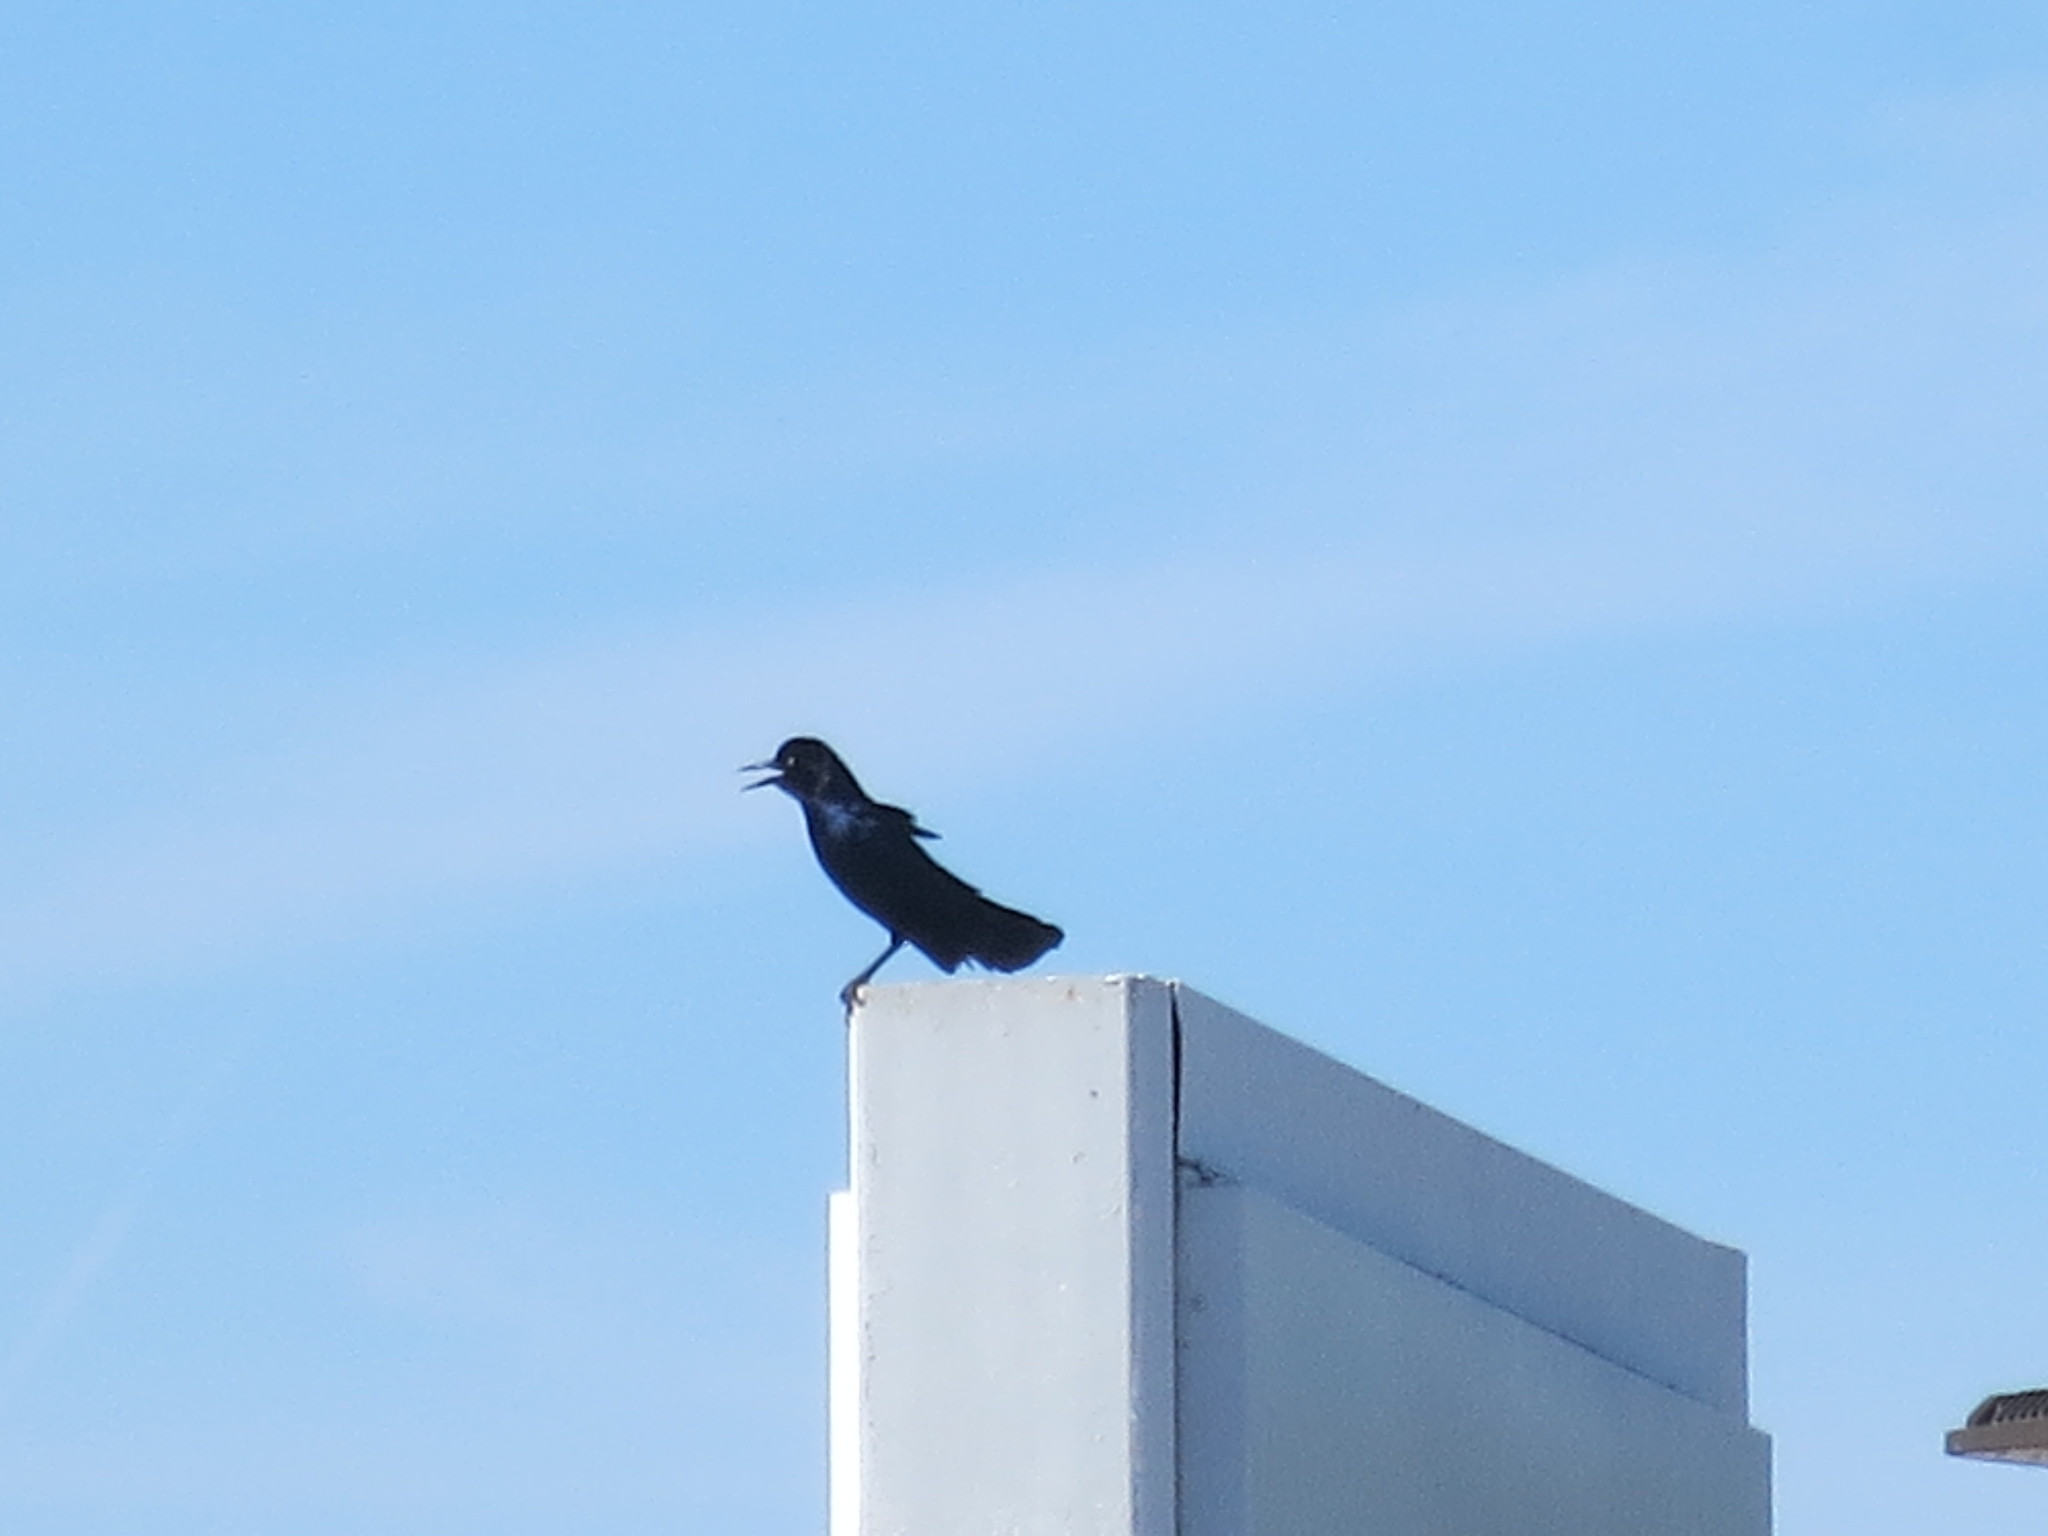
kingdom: Animalia
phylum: Chordata
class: Aves
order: Passeriformes
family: Icteridae
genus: Quiscalus
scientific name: Quiscalus major
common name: Boat-tailed grackle
